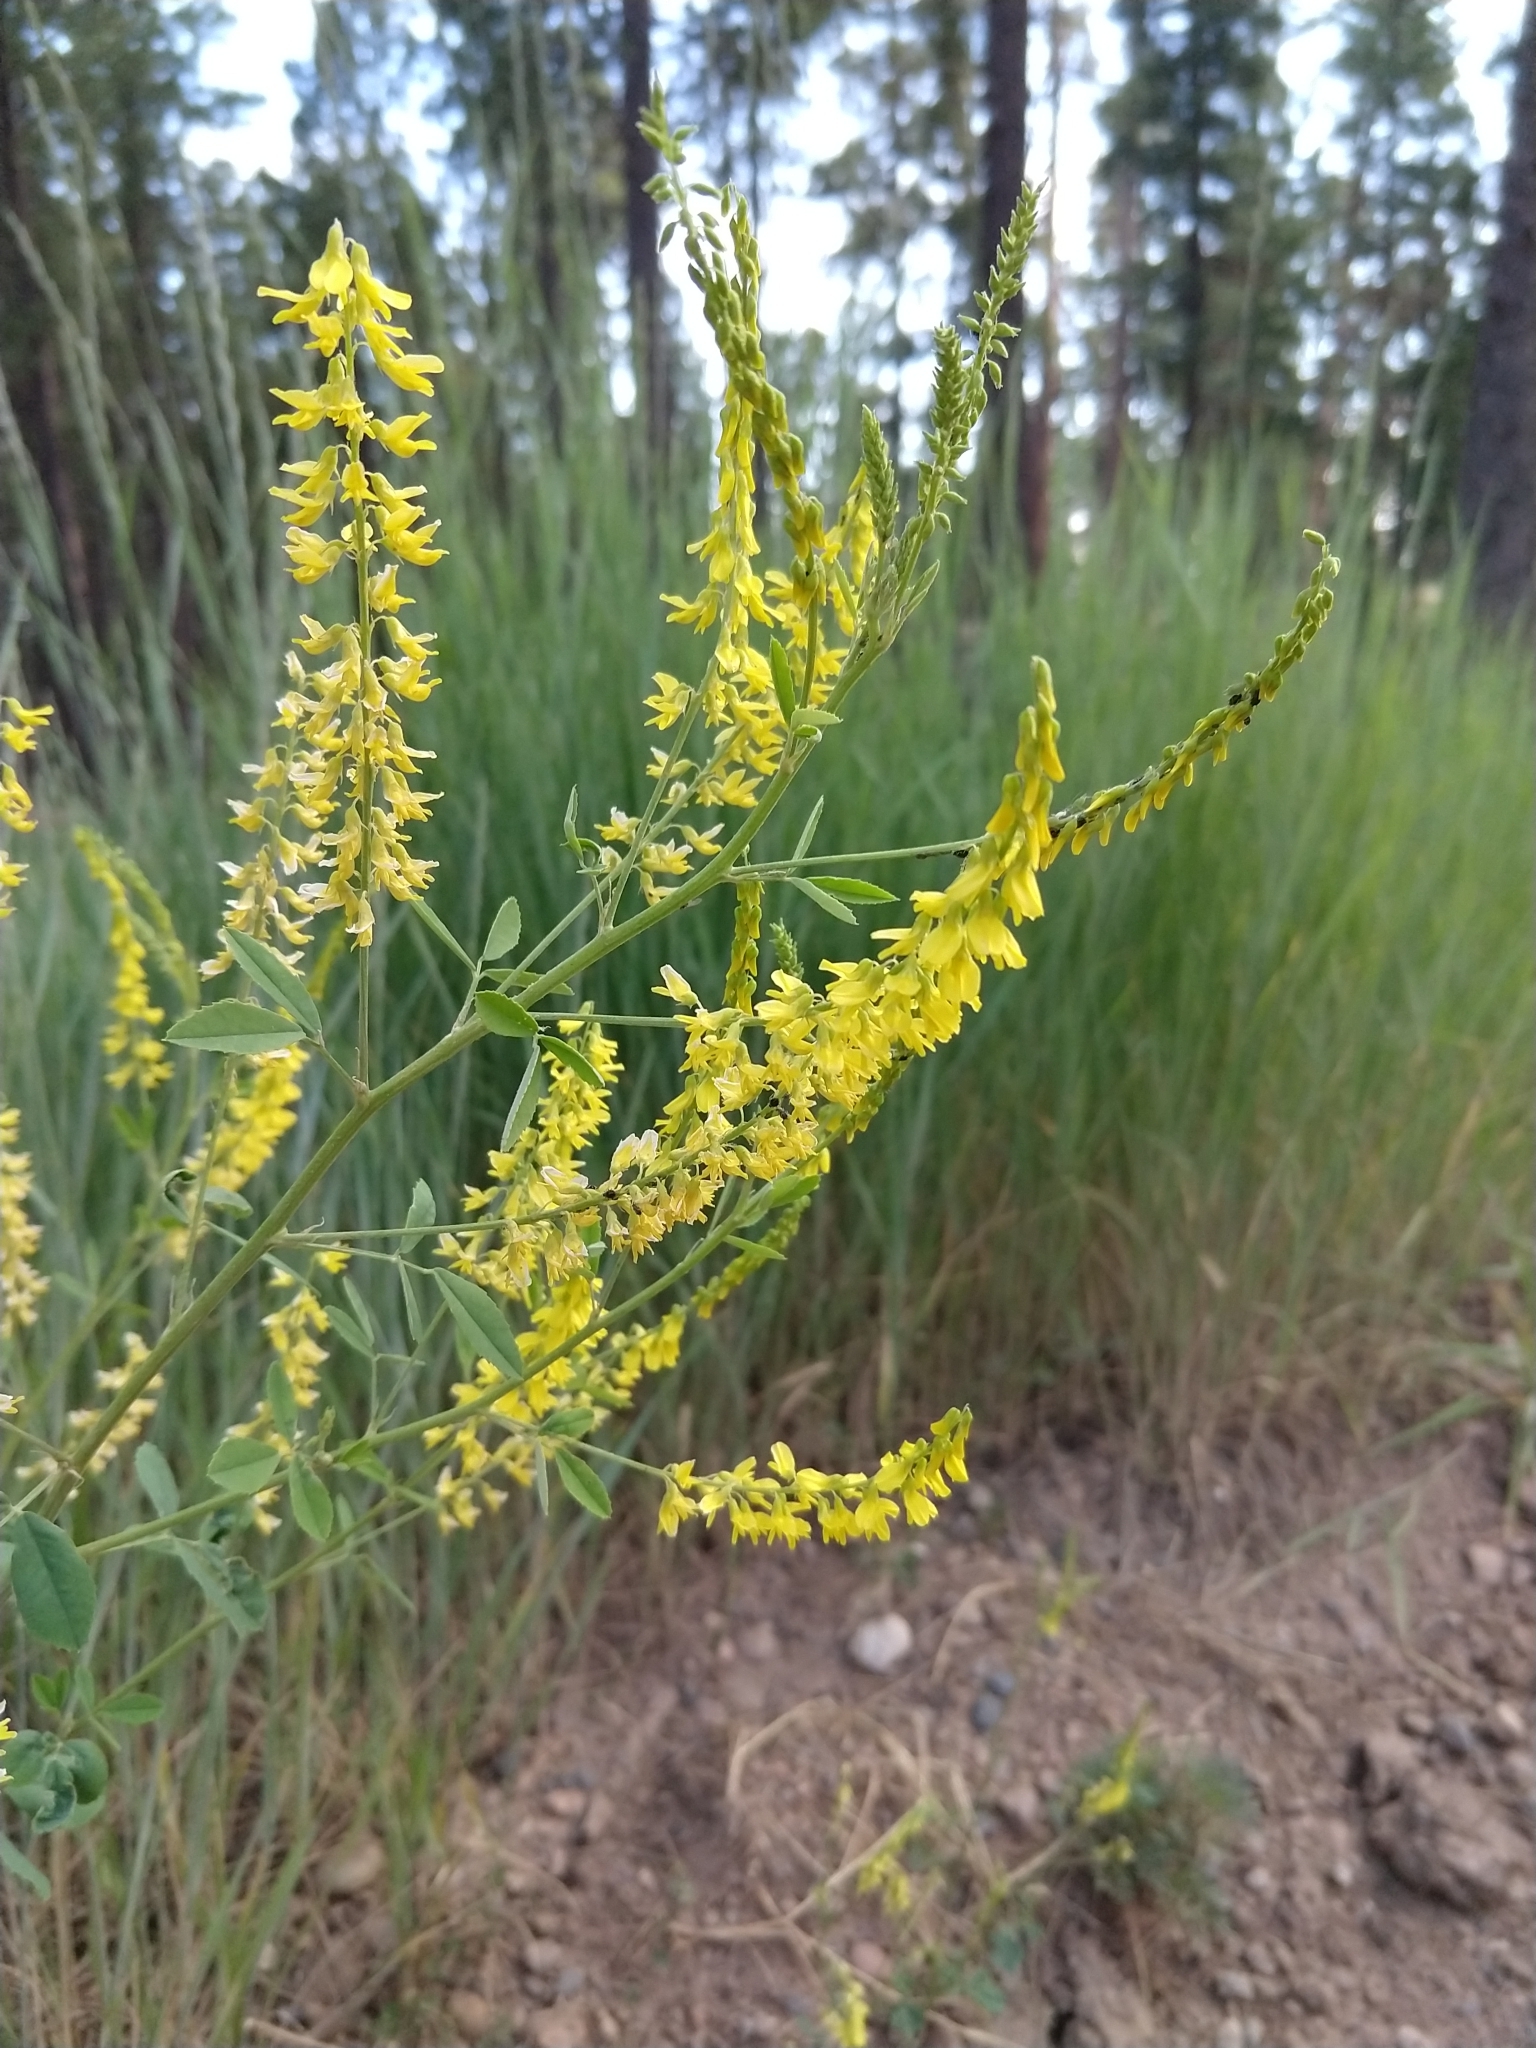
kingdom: Plantae
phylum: Tracheophyta
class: Magnoliopsida
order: Fabales
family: Fabaceae
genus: Melilotus
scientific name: Melilotus officinalis
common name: Sweetclover
